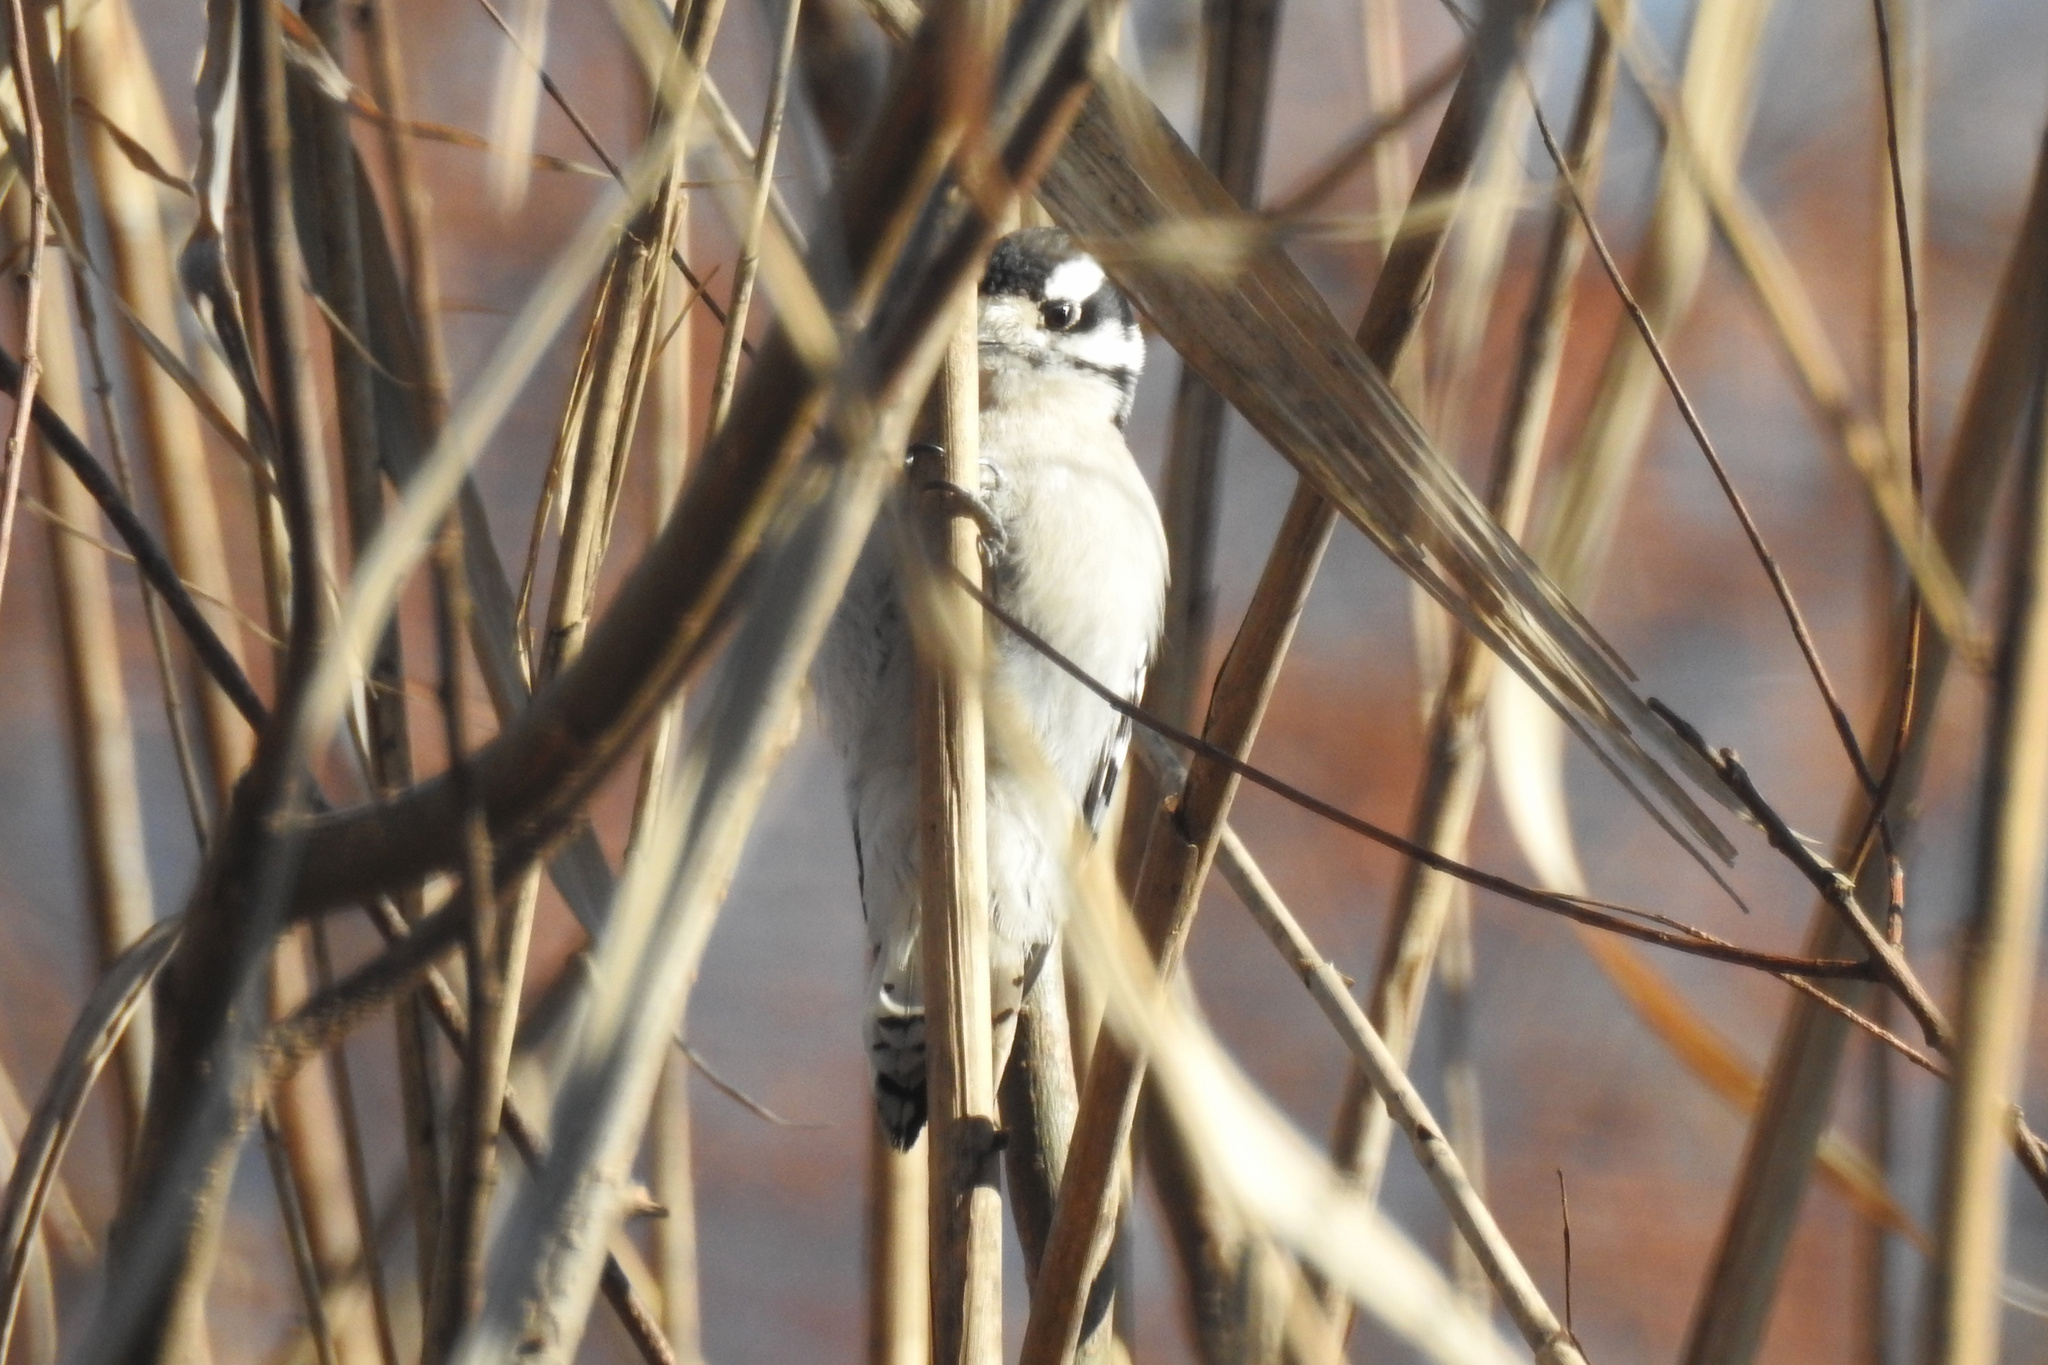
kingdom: Animalia
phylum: Chordata
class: Aves
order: Piciformes
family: Picidae
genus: Dryobates
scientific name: Dryobates pubescens
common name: Downy woodpecker
